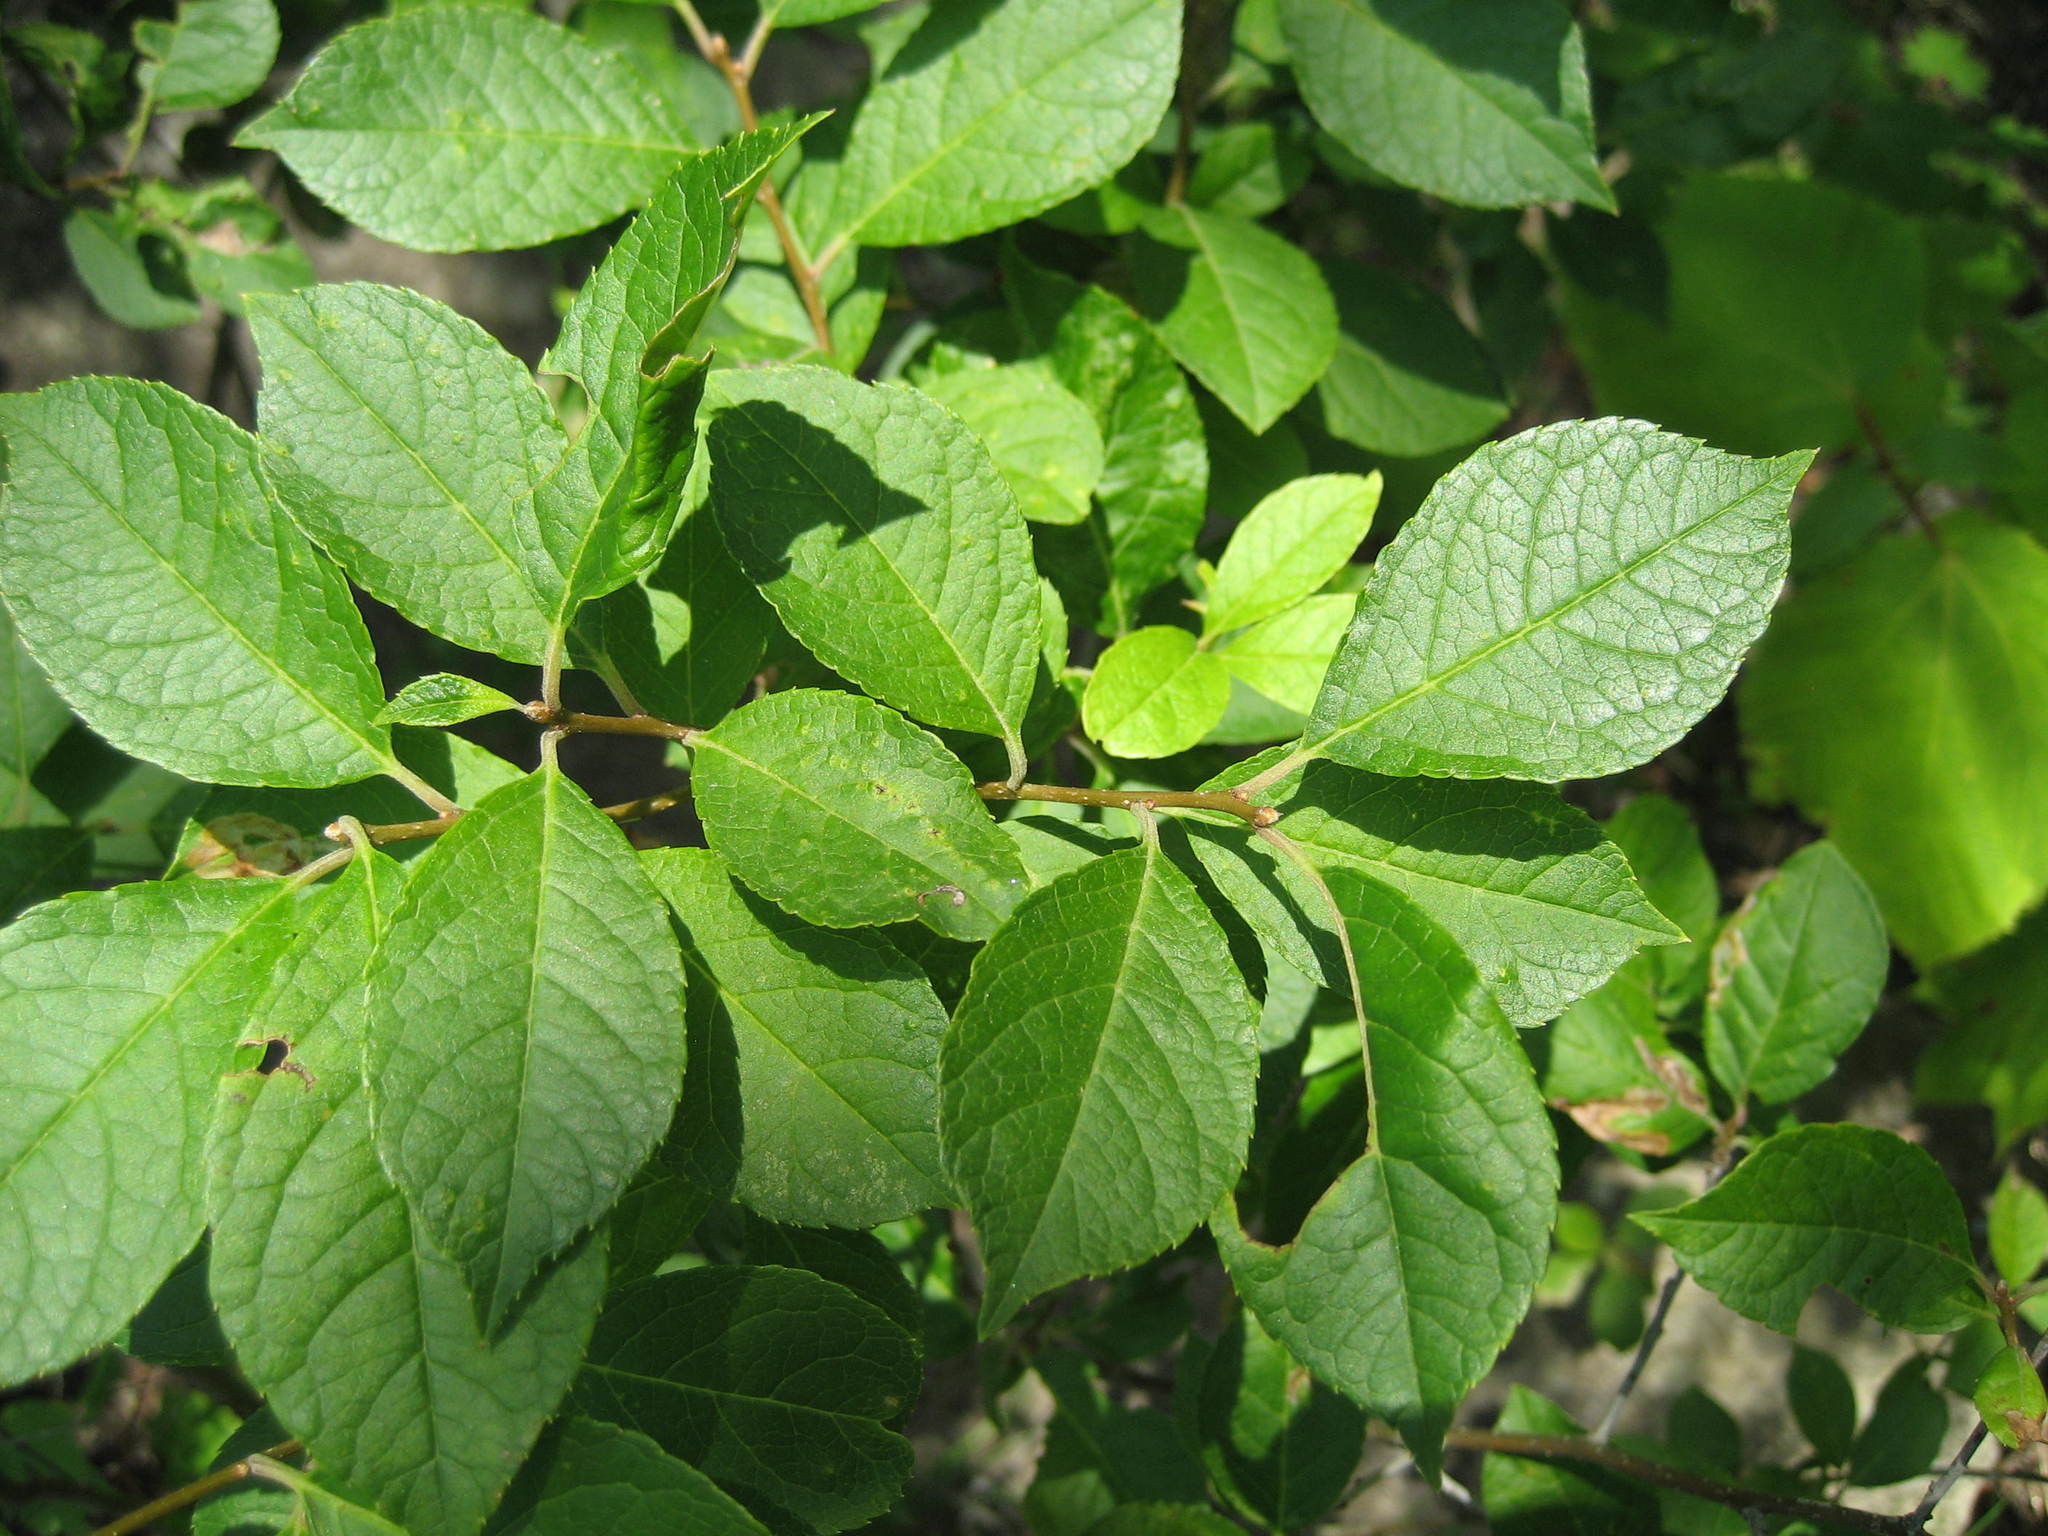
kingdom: Plantae
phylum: Tracheophyta
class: Magnoliopsida
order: Aquifoliales
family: Aquifoliaceae
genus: Ilex
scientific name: Ilex verticillata
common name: Virginia winterberry
